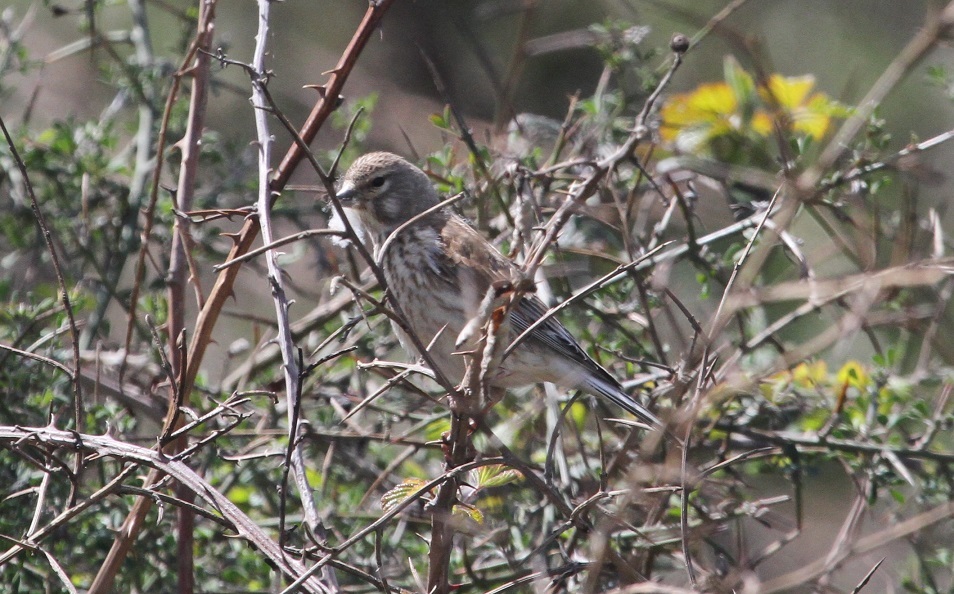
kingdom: Animalia
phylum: Chordata
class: Aves
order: Passeriformes
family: Fringillidae
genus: Linaria
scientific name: Linaria cannabina
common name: Common linnet
